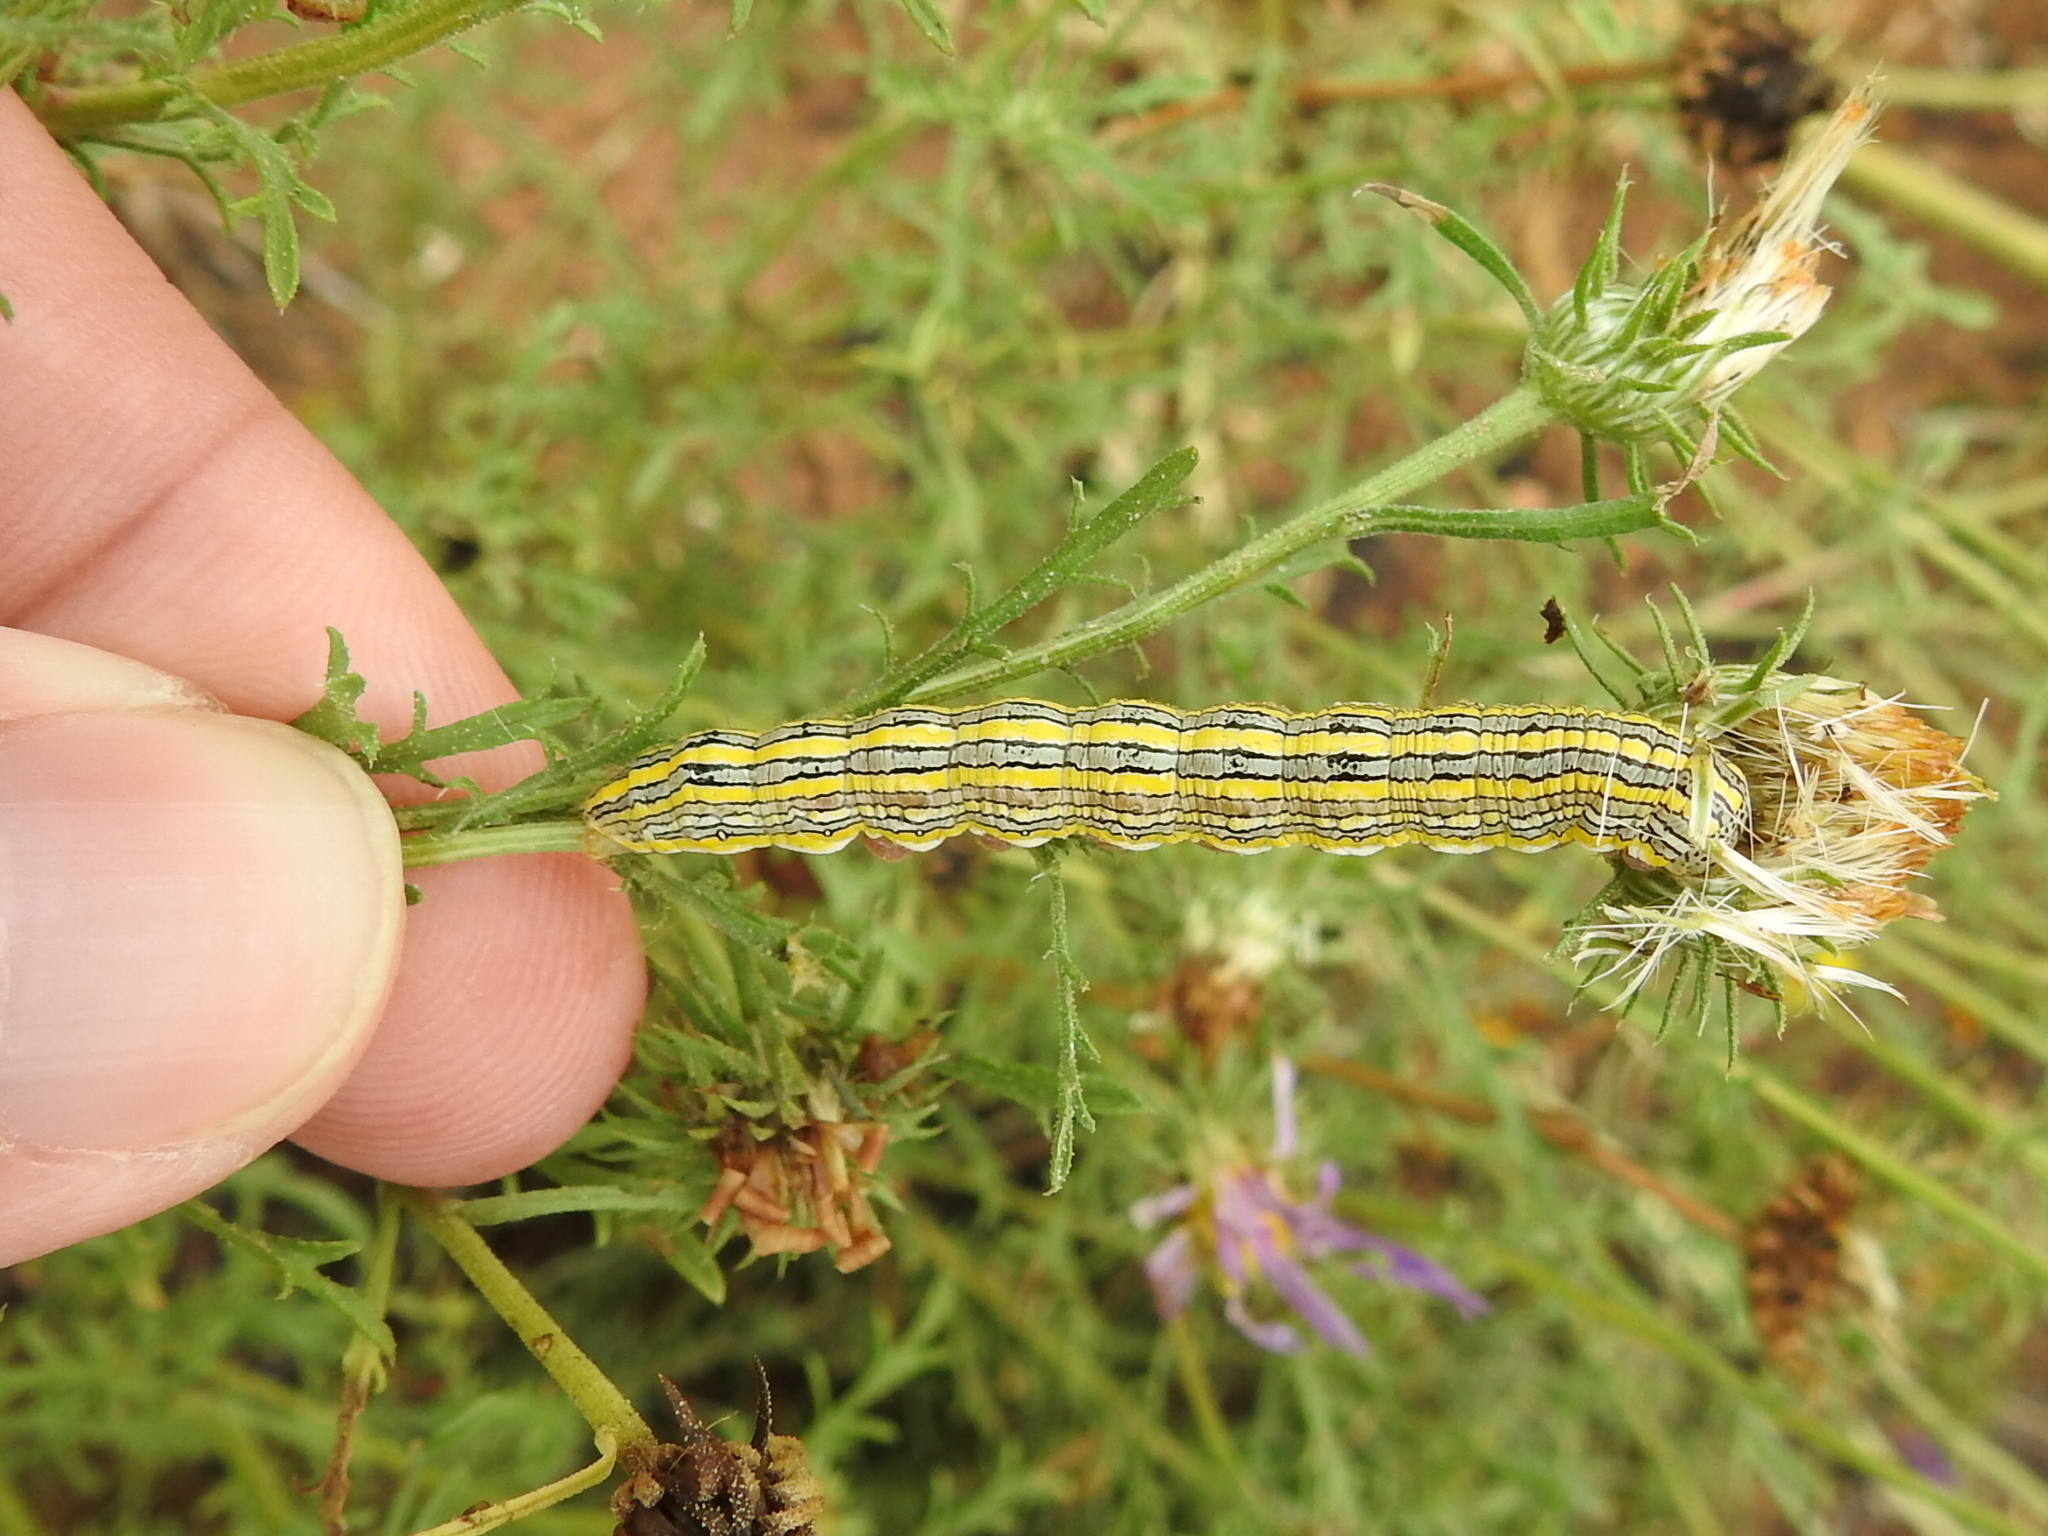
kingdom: Animalia
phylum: Arthropoda
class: Insecta
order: Lepidoptera
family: Noctuidae
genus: Cucullia
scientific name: Cucullia montanae
